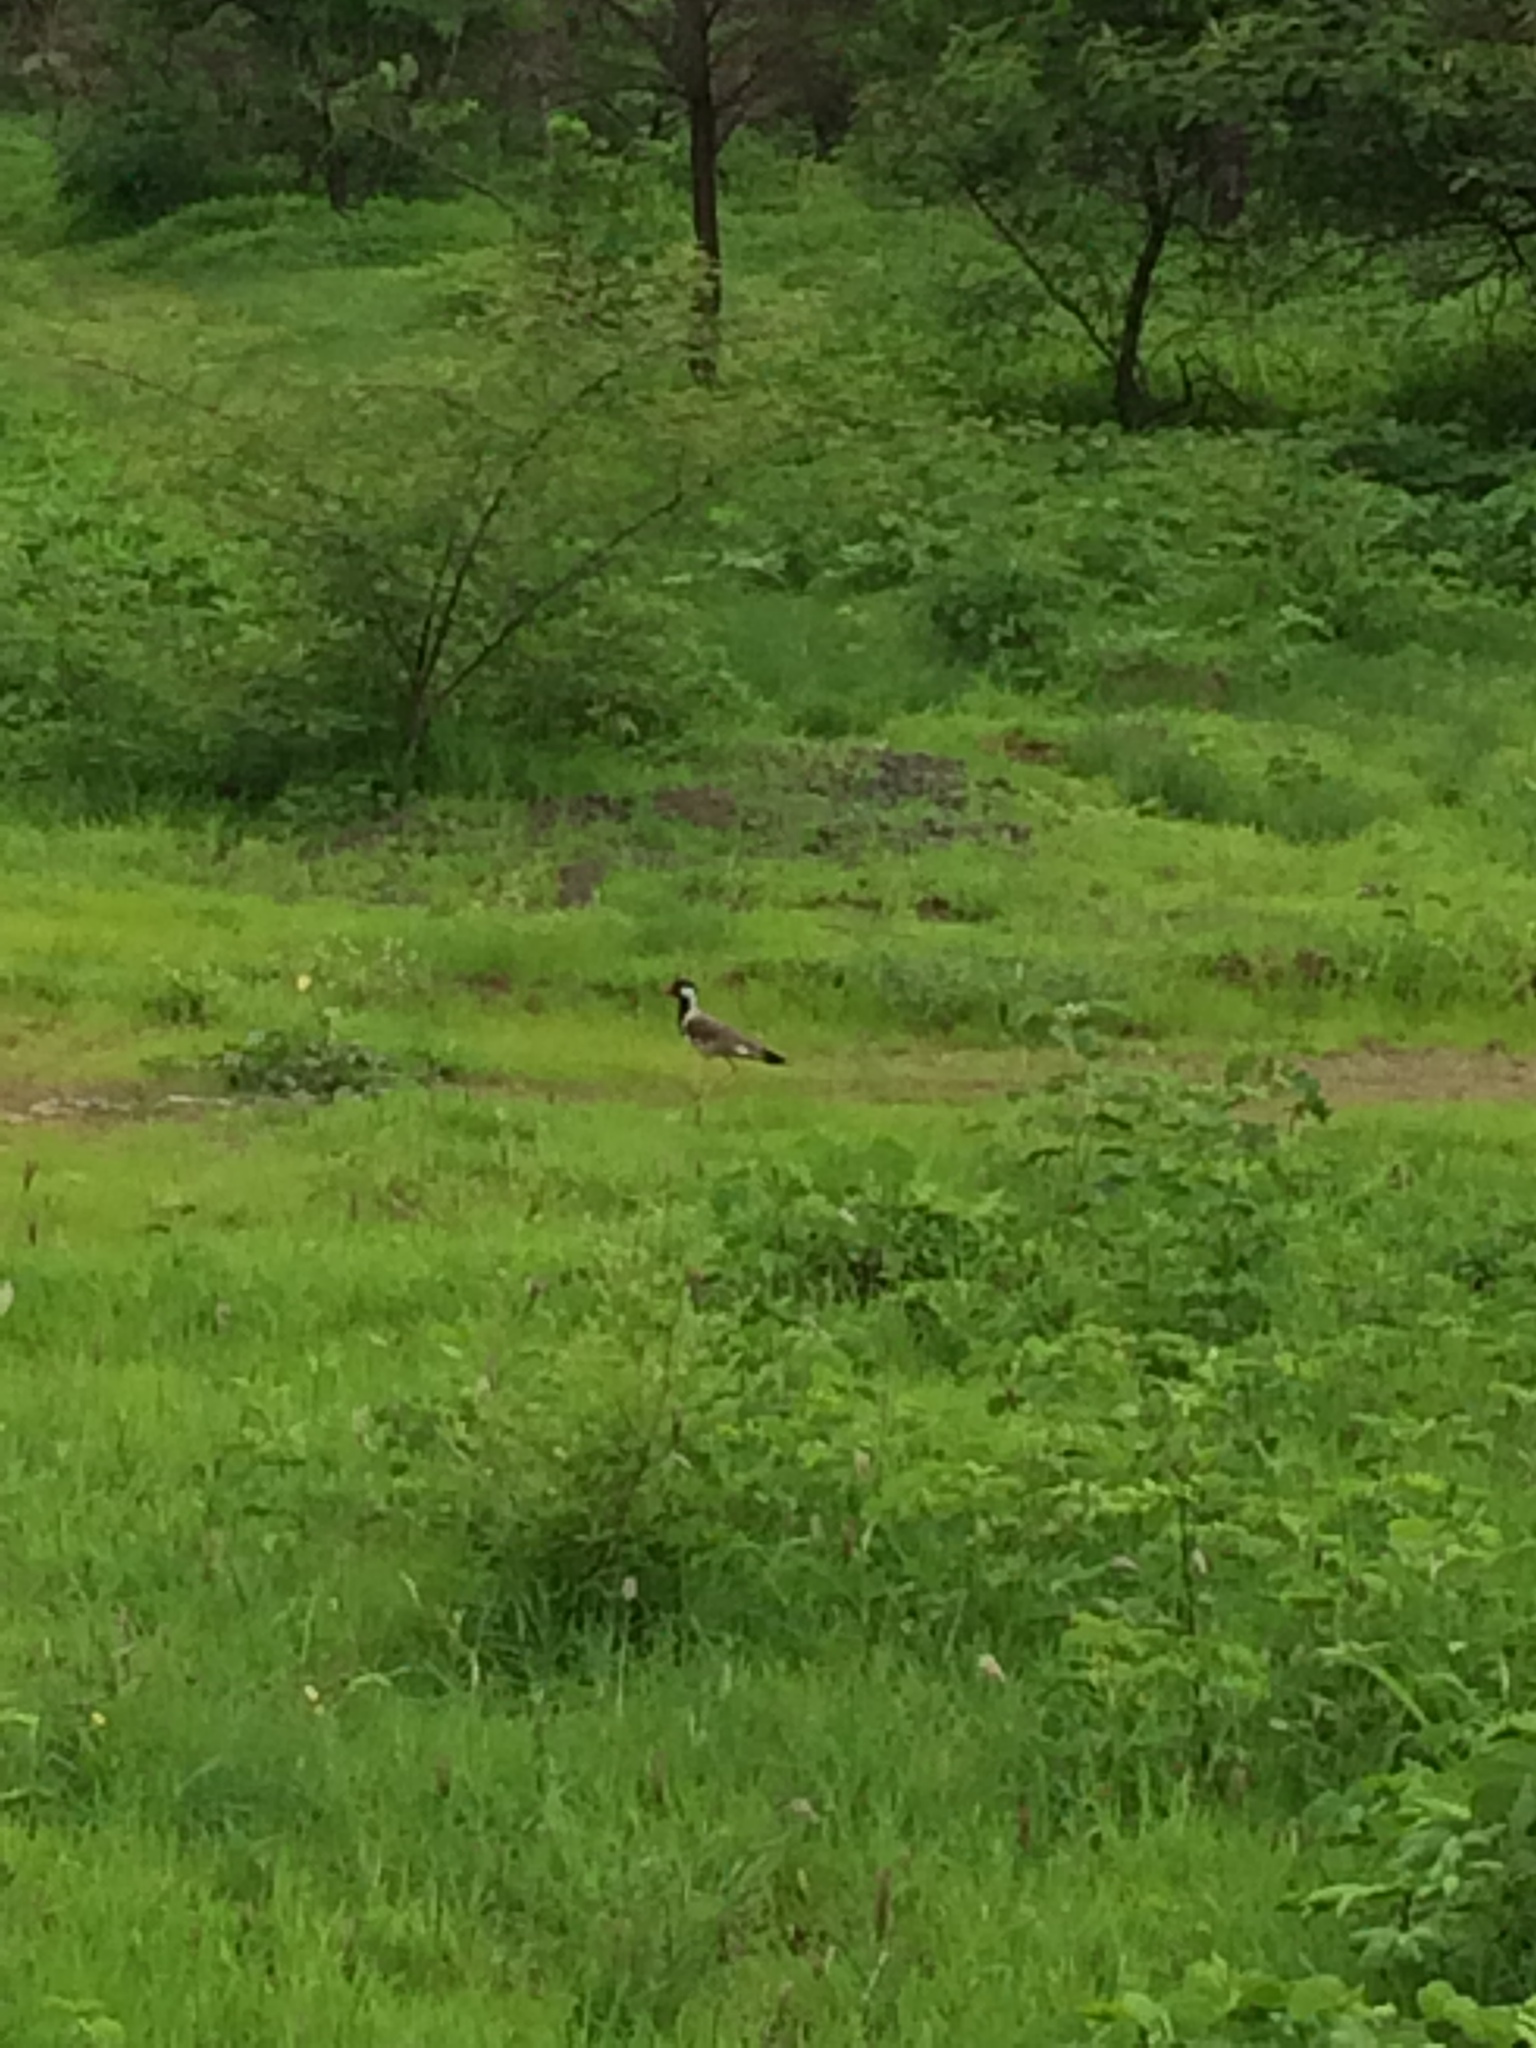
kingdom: Animalia
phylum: Chordata
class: Aves
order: Charadriiformes
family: Charadriidae
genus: Vanellus
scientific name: Vanellus indicus
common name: Red-wattled lapwing
